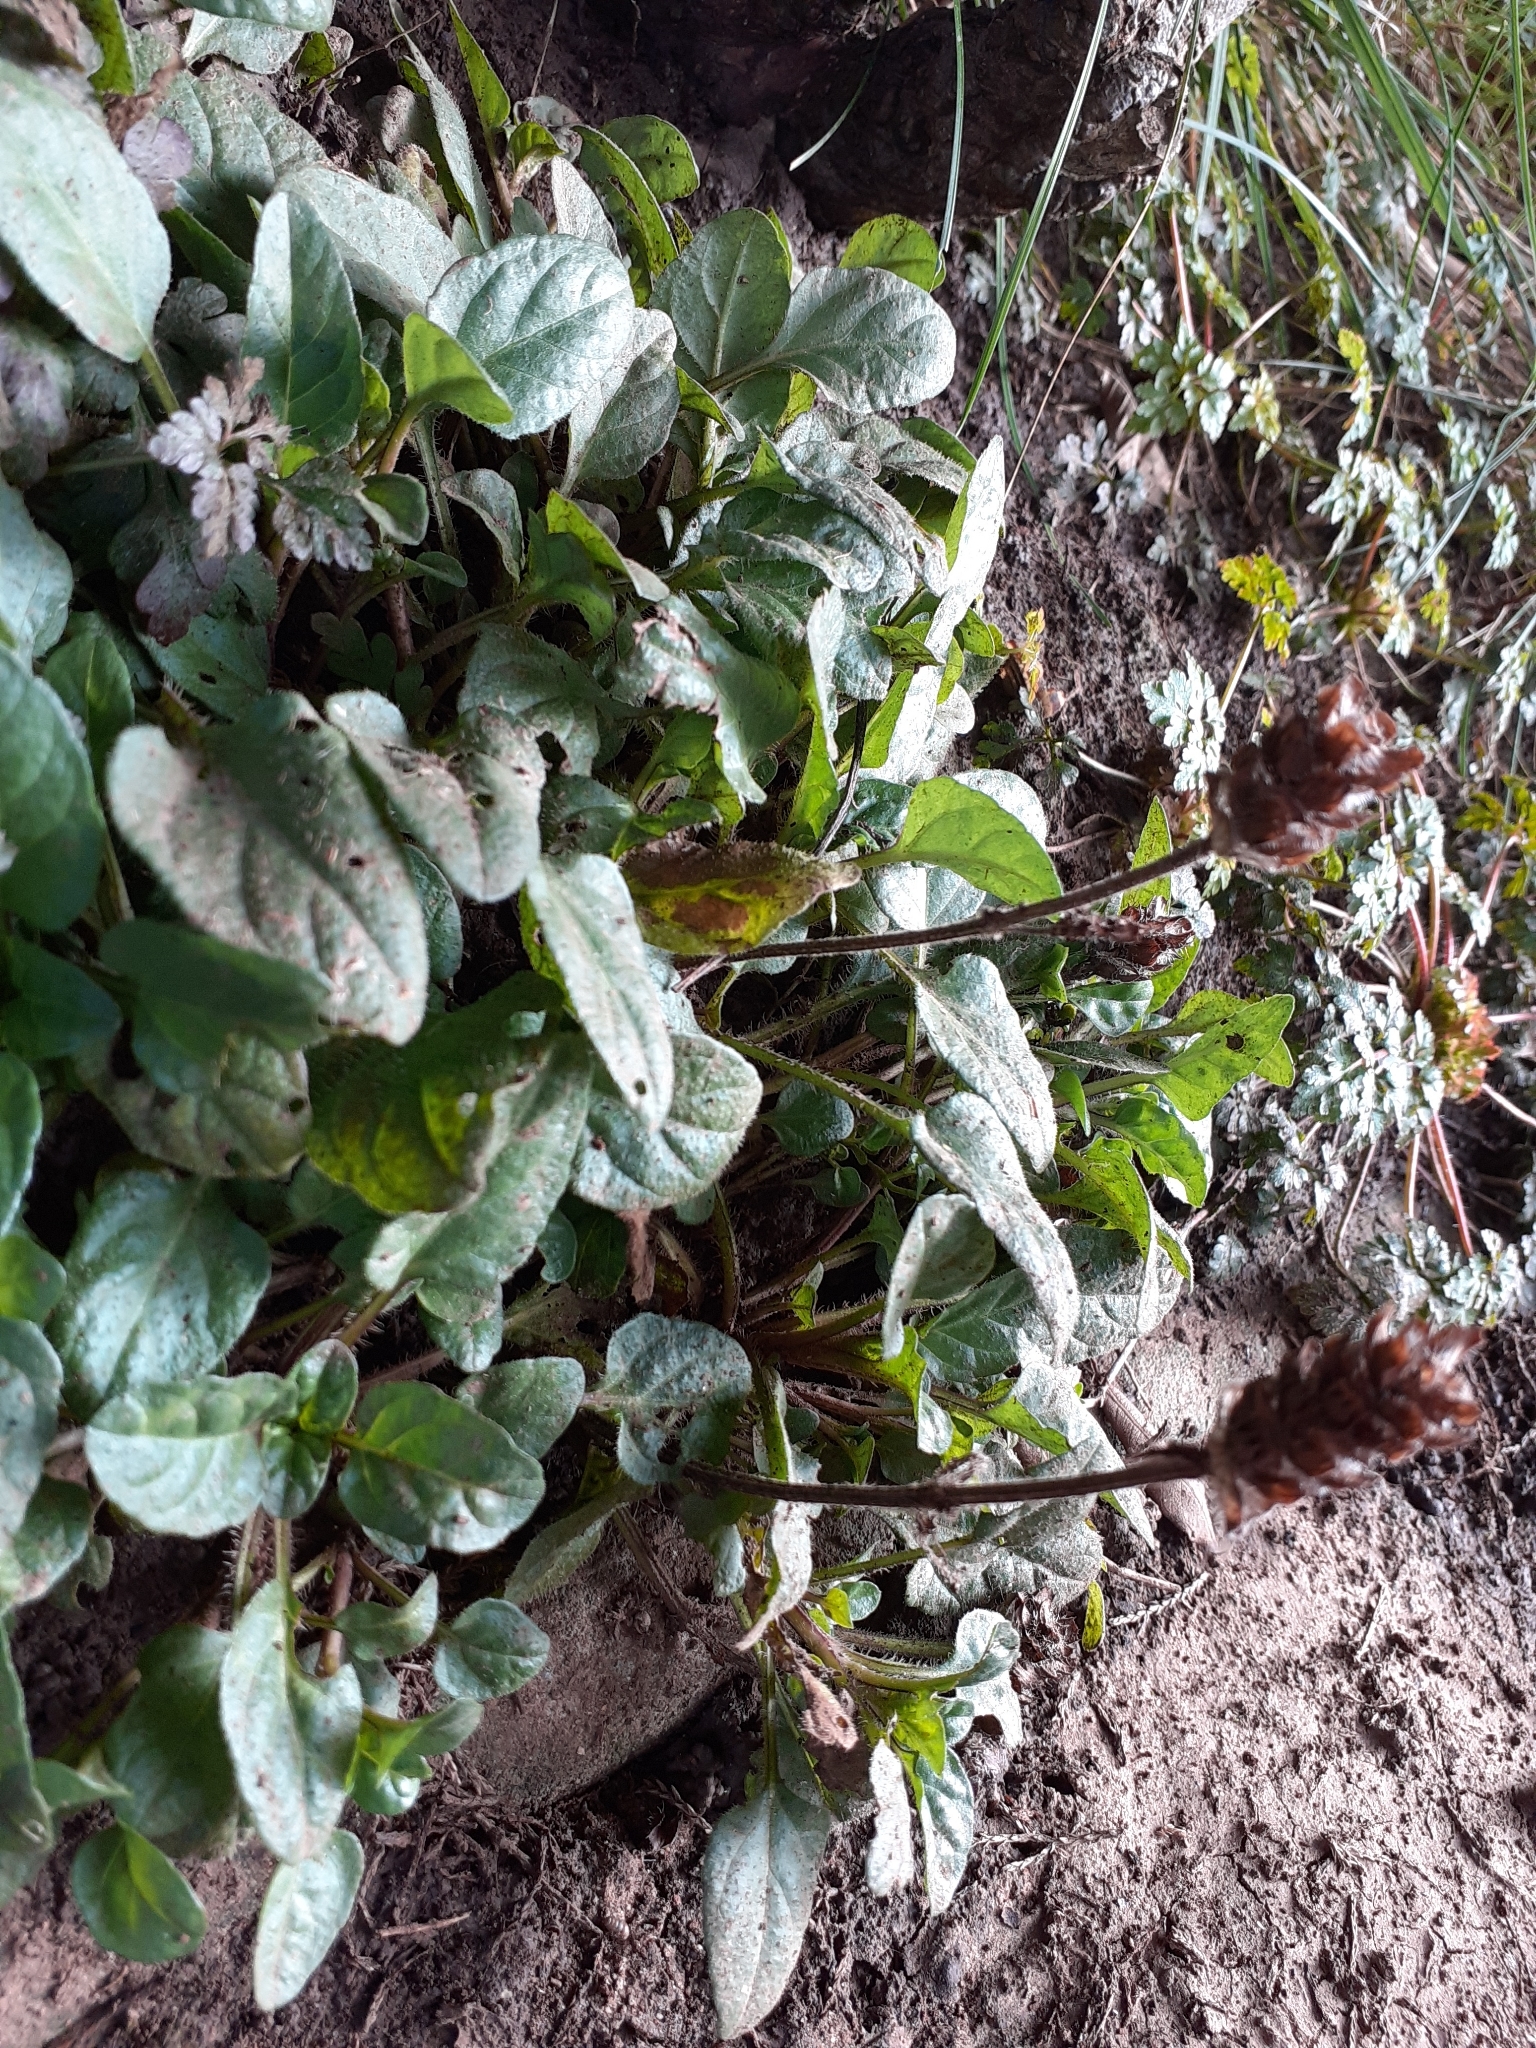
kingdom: Plantae
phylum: Tracheophyta
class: Magnoliopsida
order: Lamiales
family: Lamiaceae
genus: Prunella
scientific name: Prunella vulgaris
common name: Heal-all
